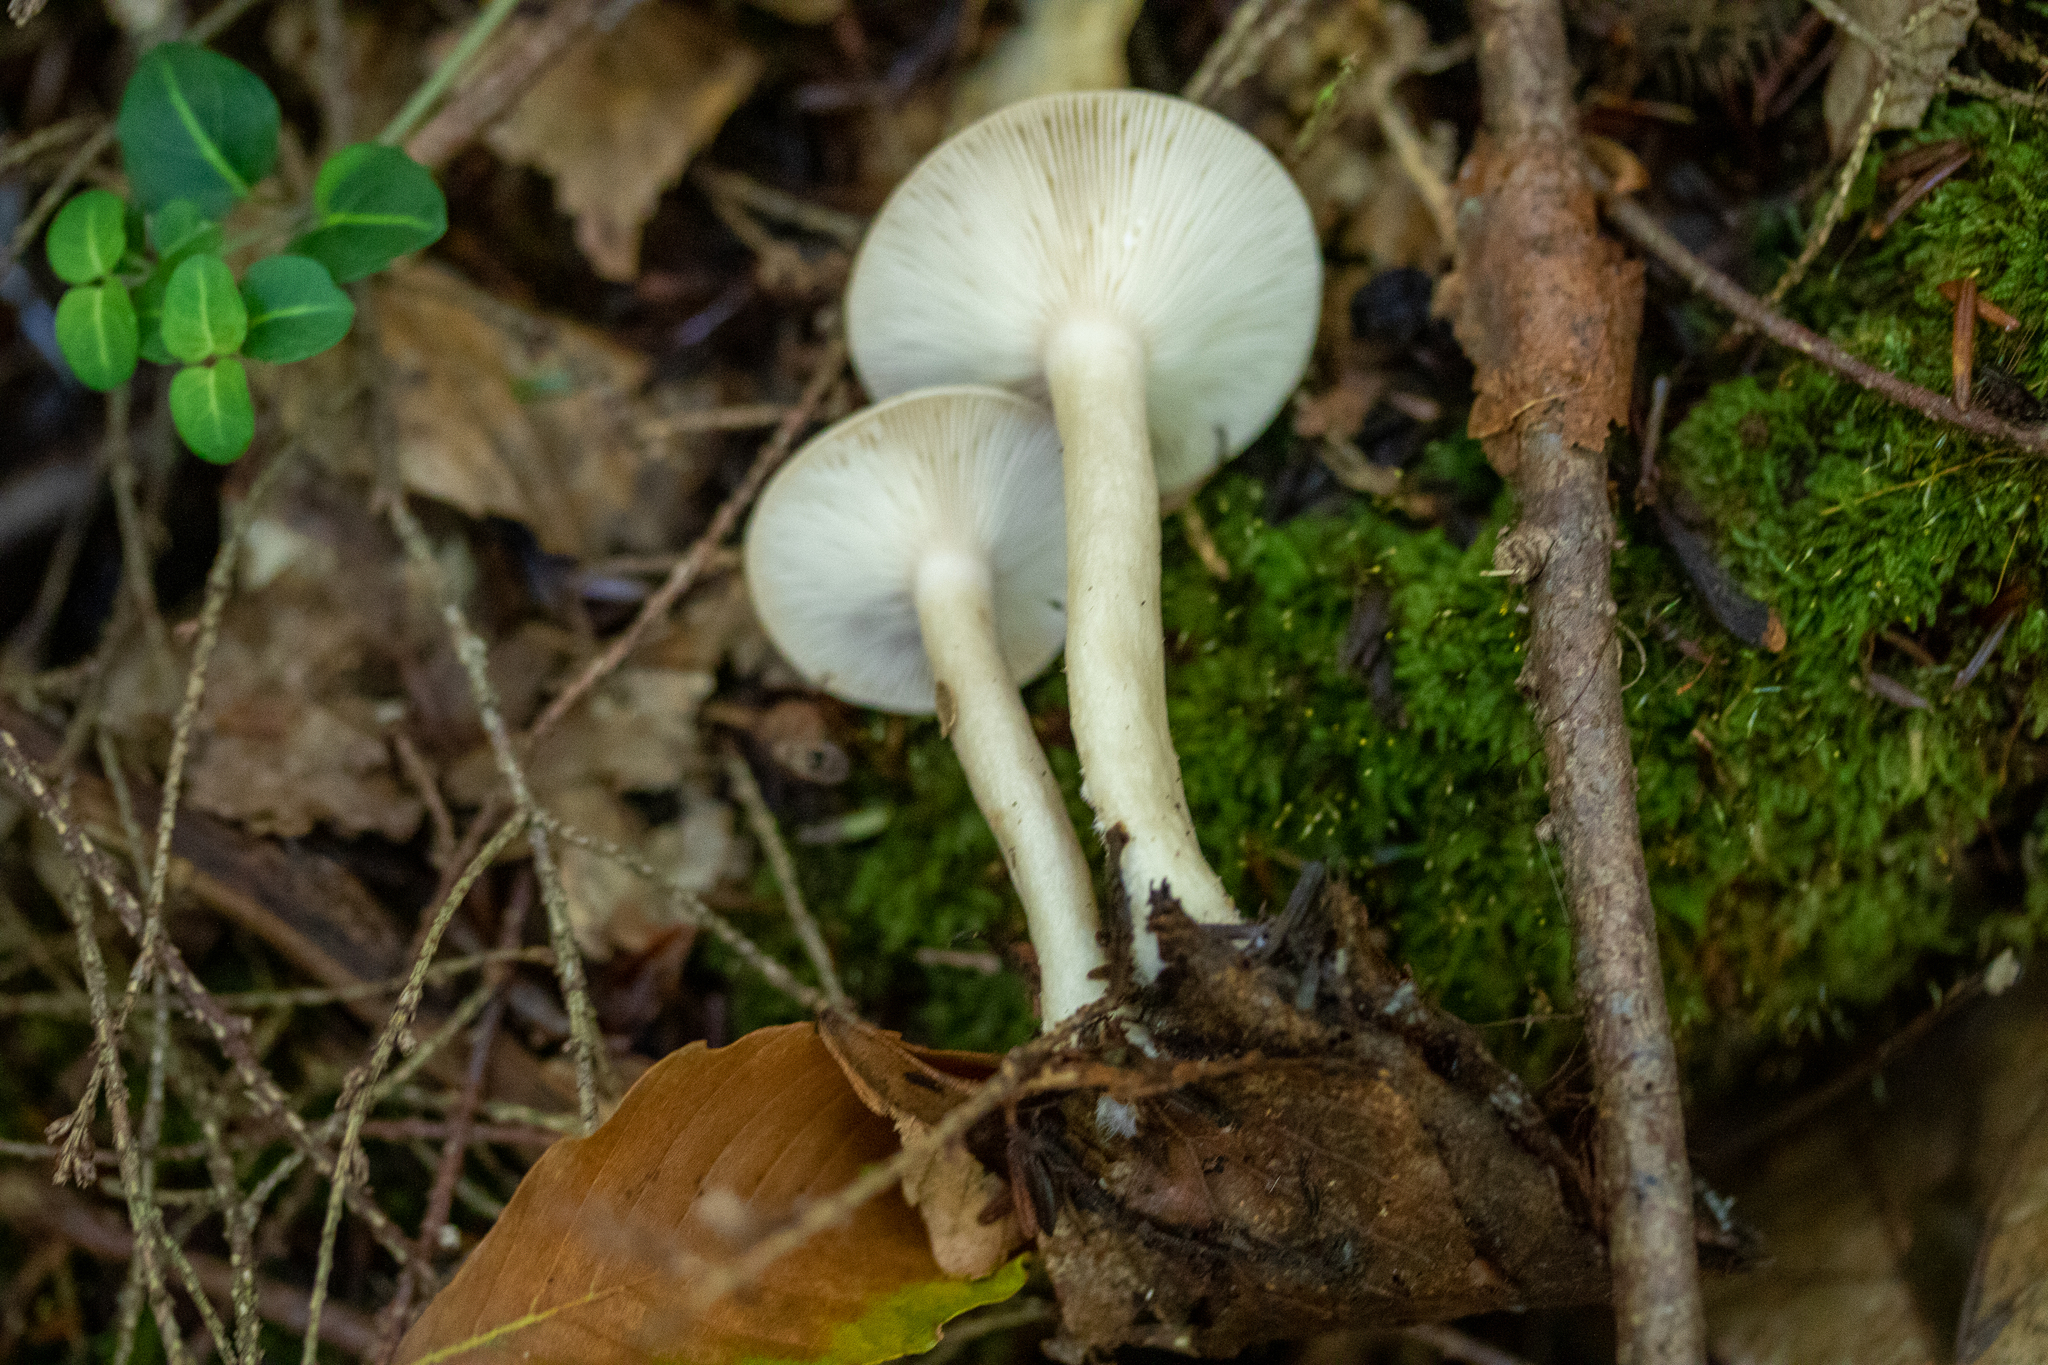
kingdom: Fungi
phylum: Basidiomycota
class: Agaricomycetes
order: Russulales
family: Russulaceae
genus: Lactarius
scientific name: Lactarius griseus
